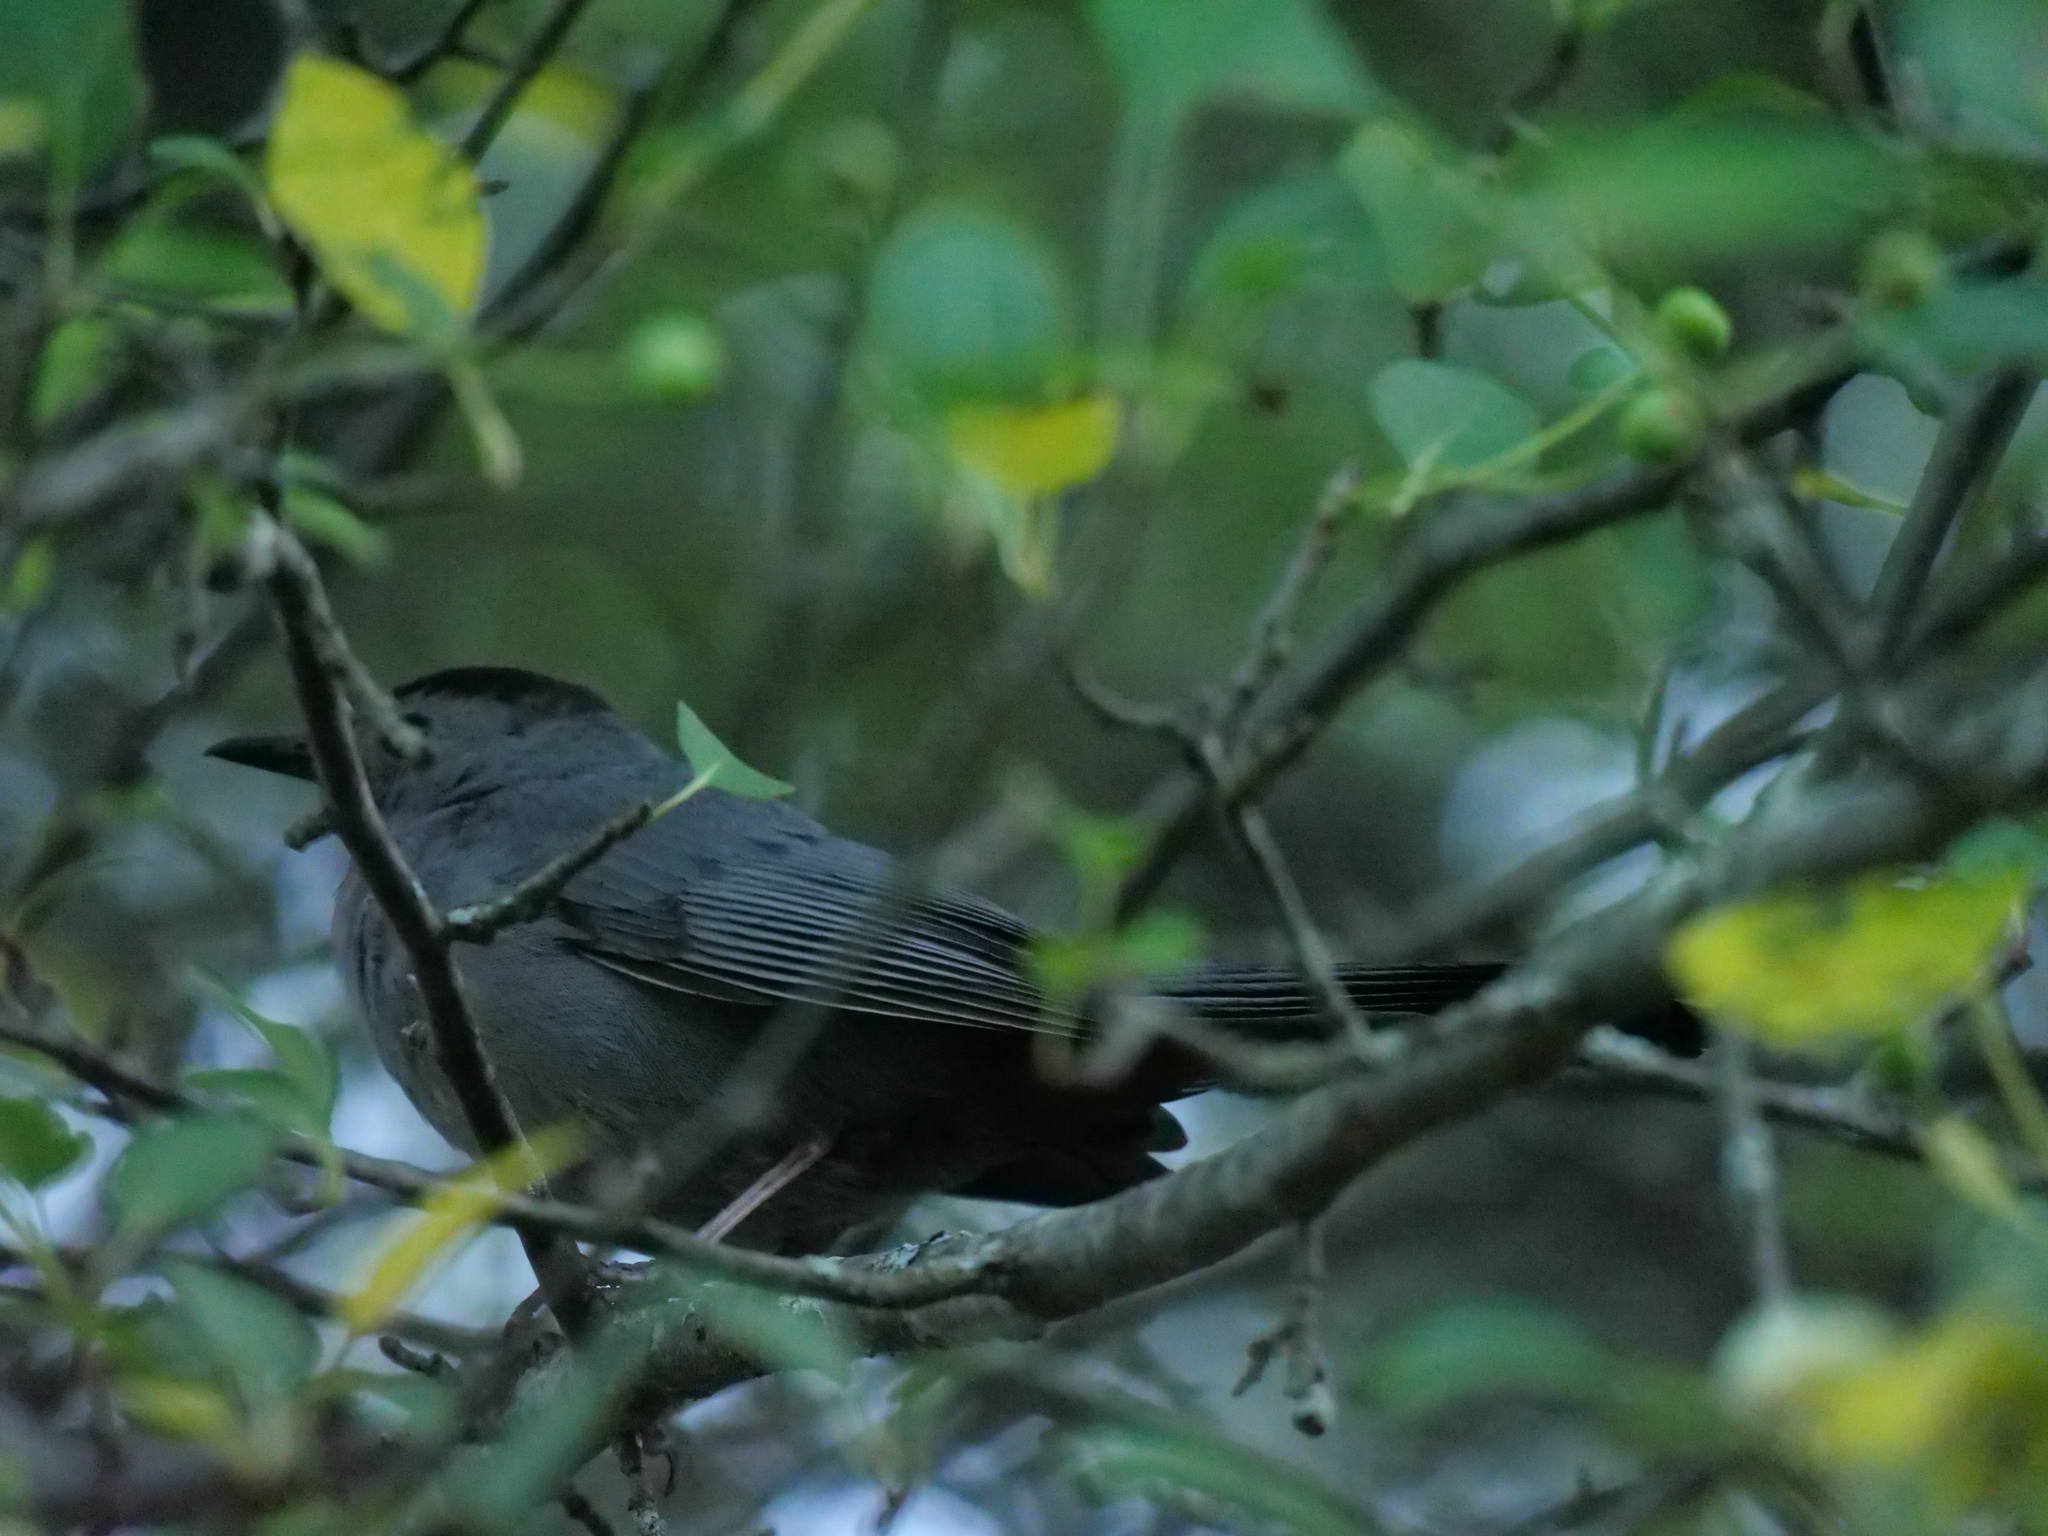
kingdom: Animalia
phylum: Chordata
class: Aves
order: Passeriformes
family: Mimidae
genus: Dumetella
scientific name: Dumetella carolinensis
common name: Gray catbird
